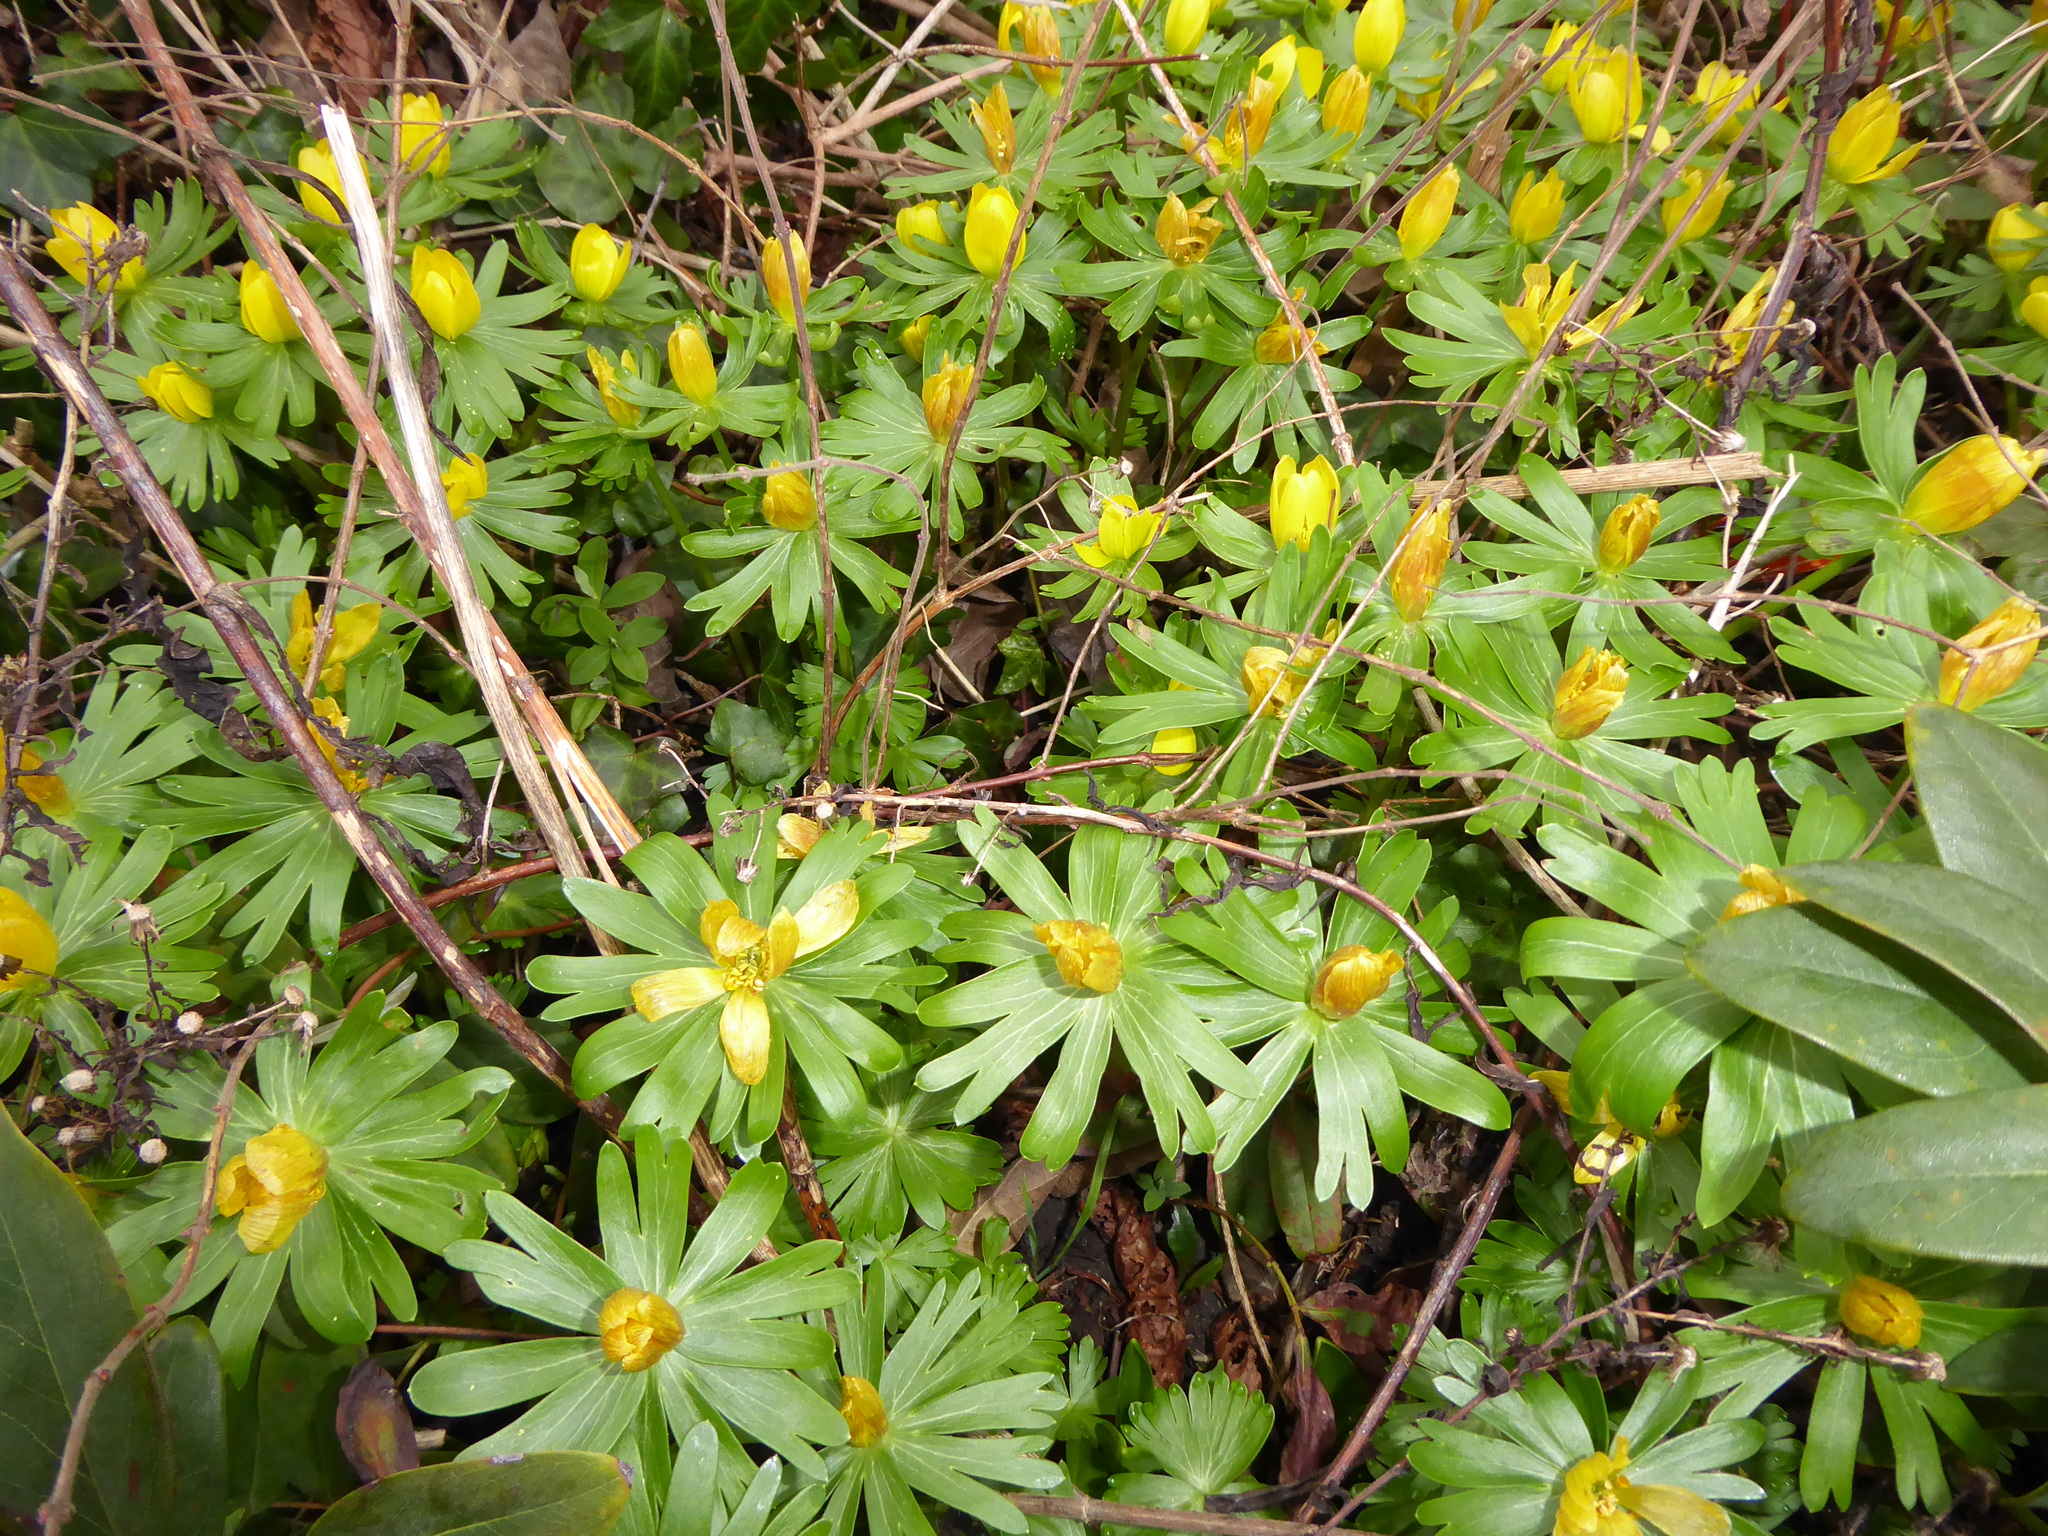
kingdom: Plantae
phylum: Tracheophyta
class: Magnoliopsida
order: Ranunculales
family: Ranunculaceae
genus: Eranthis
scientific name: Eranthis hyemalis
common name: Winter aconite
